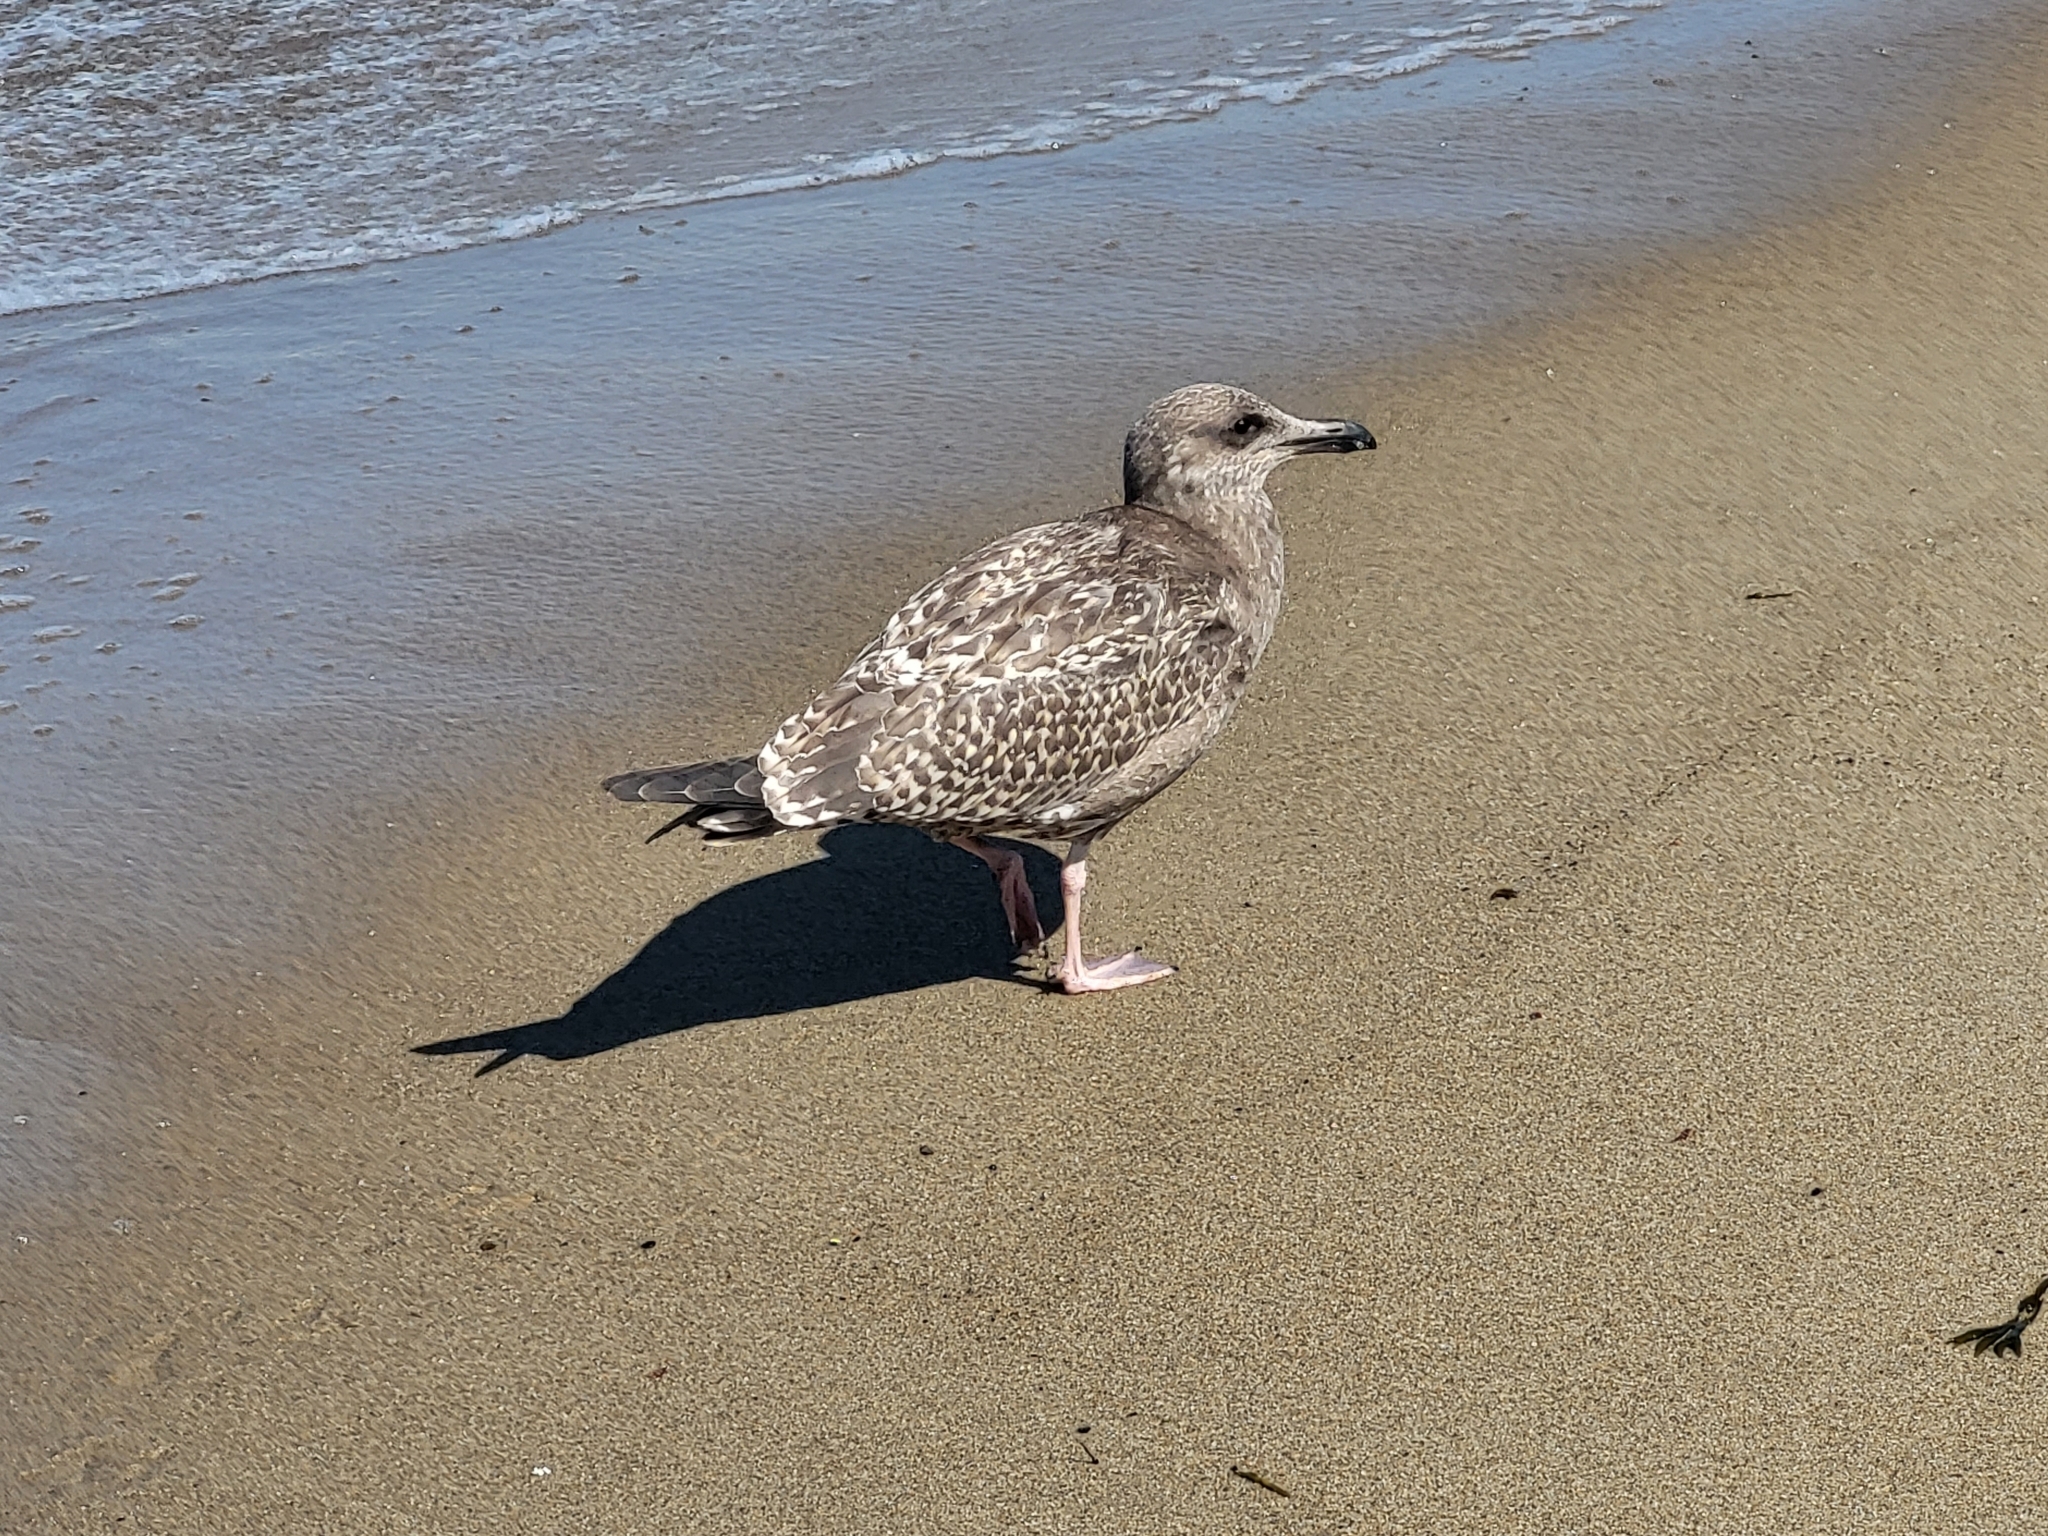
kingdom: Animalia
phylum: Chordata
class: Aves
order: Charadriiformes
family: Laridae
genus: Larus
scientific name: Larus argentatus
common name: Herring gull
